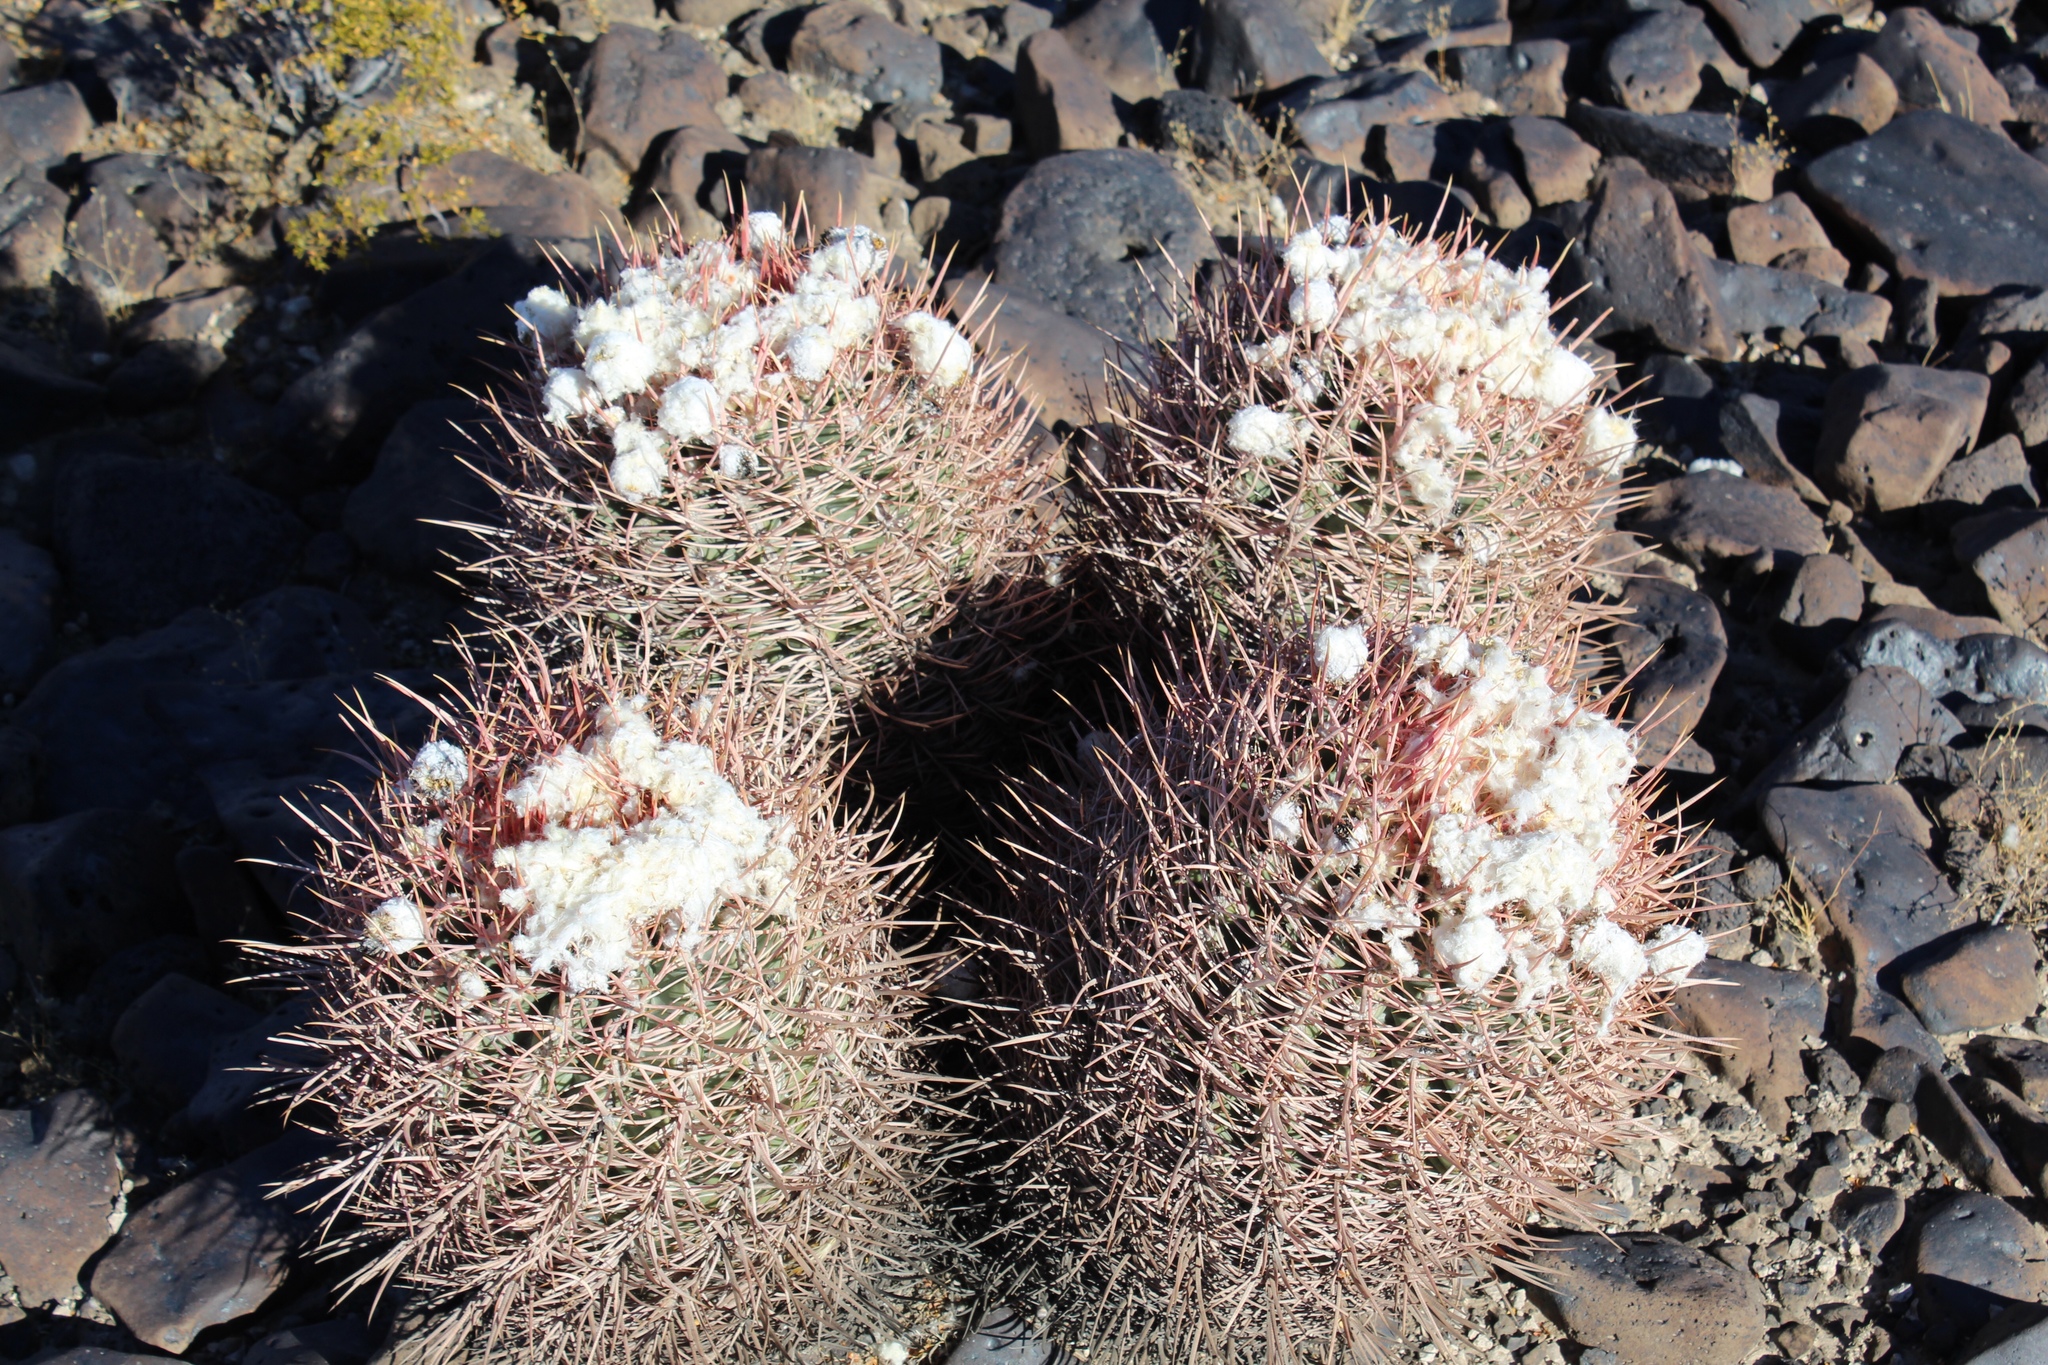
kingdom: Plantae
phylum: Tracheophyta
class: Magnoliopsida
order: Caryophyllales
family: Cactaceae
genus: Echinocactus
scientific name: Echinocactus polycephalus
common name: Cottontop cactus
